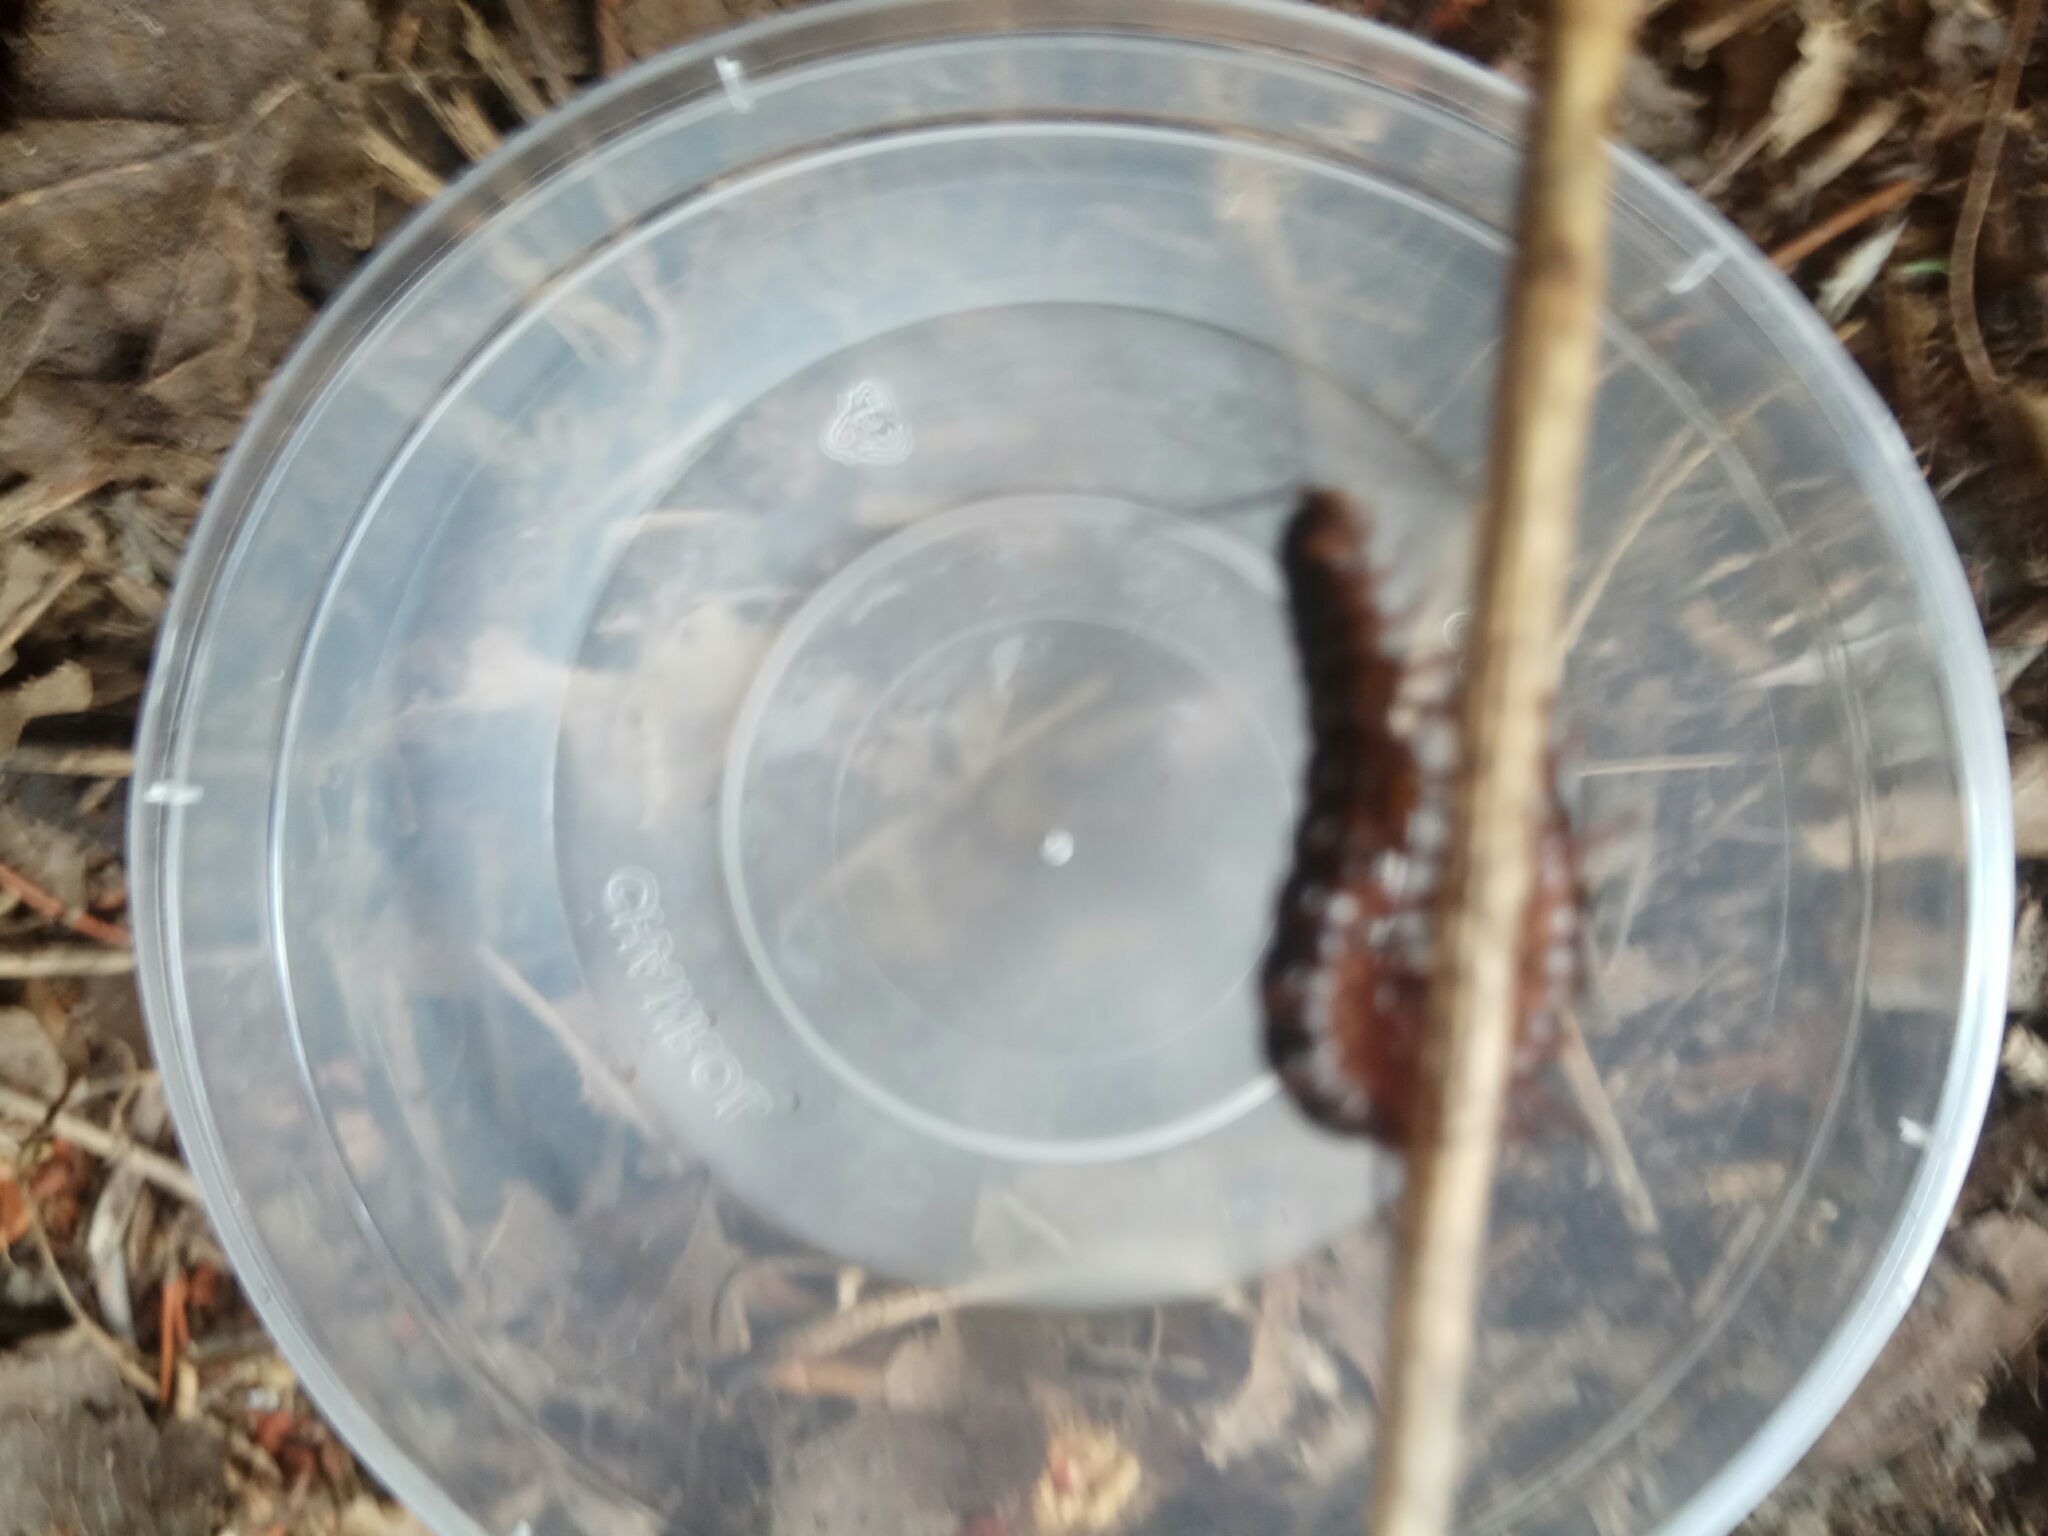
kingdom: Animalia
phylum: Arthropoda
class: Diplopoda
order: Polydesmida
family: Paradoxosomatidae
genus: Heterocladosoma
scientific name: Heterocladosoma
